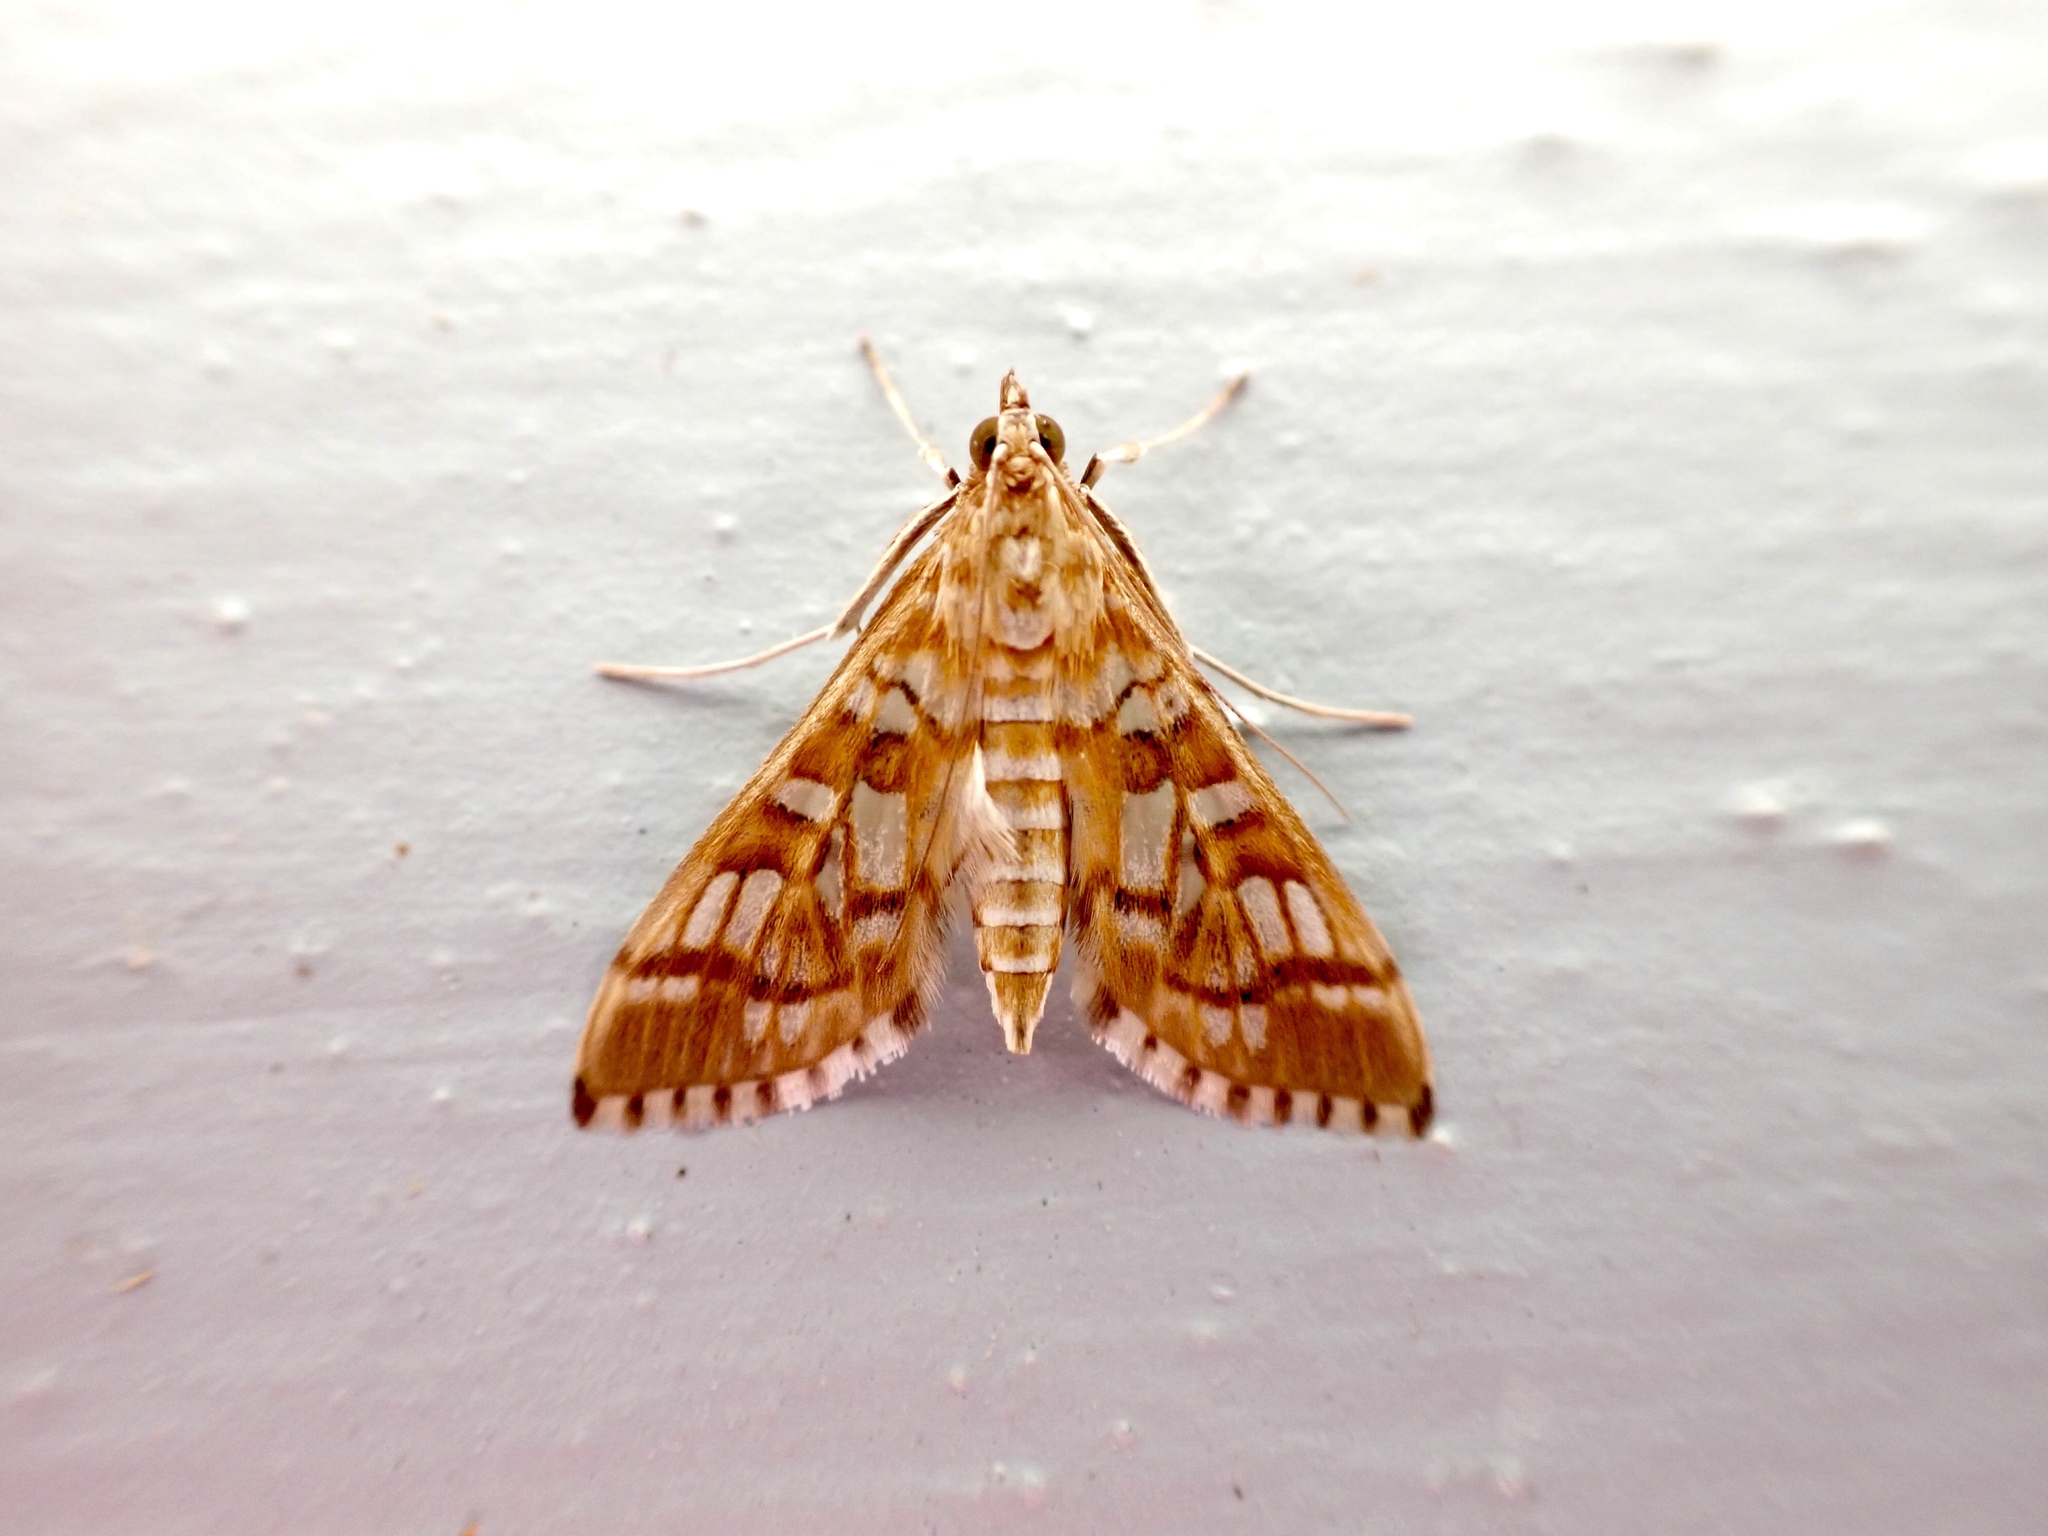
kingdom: Animalia
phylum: Arthropoda
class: Insecta
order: Lepidoptera
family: Crambidae
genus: Epipagis
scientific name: Epipagis fenestralis
